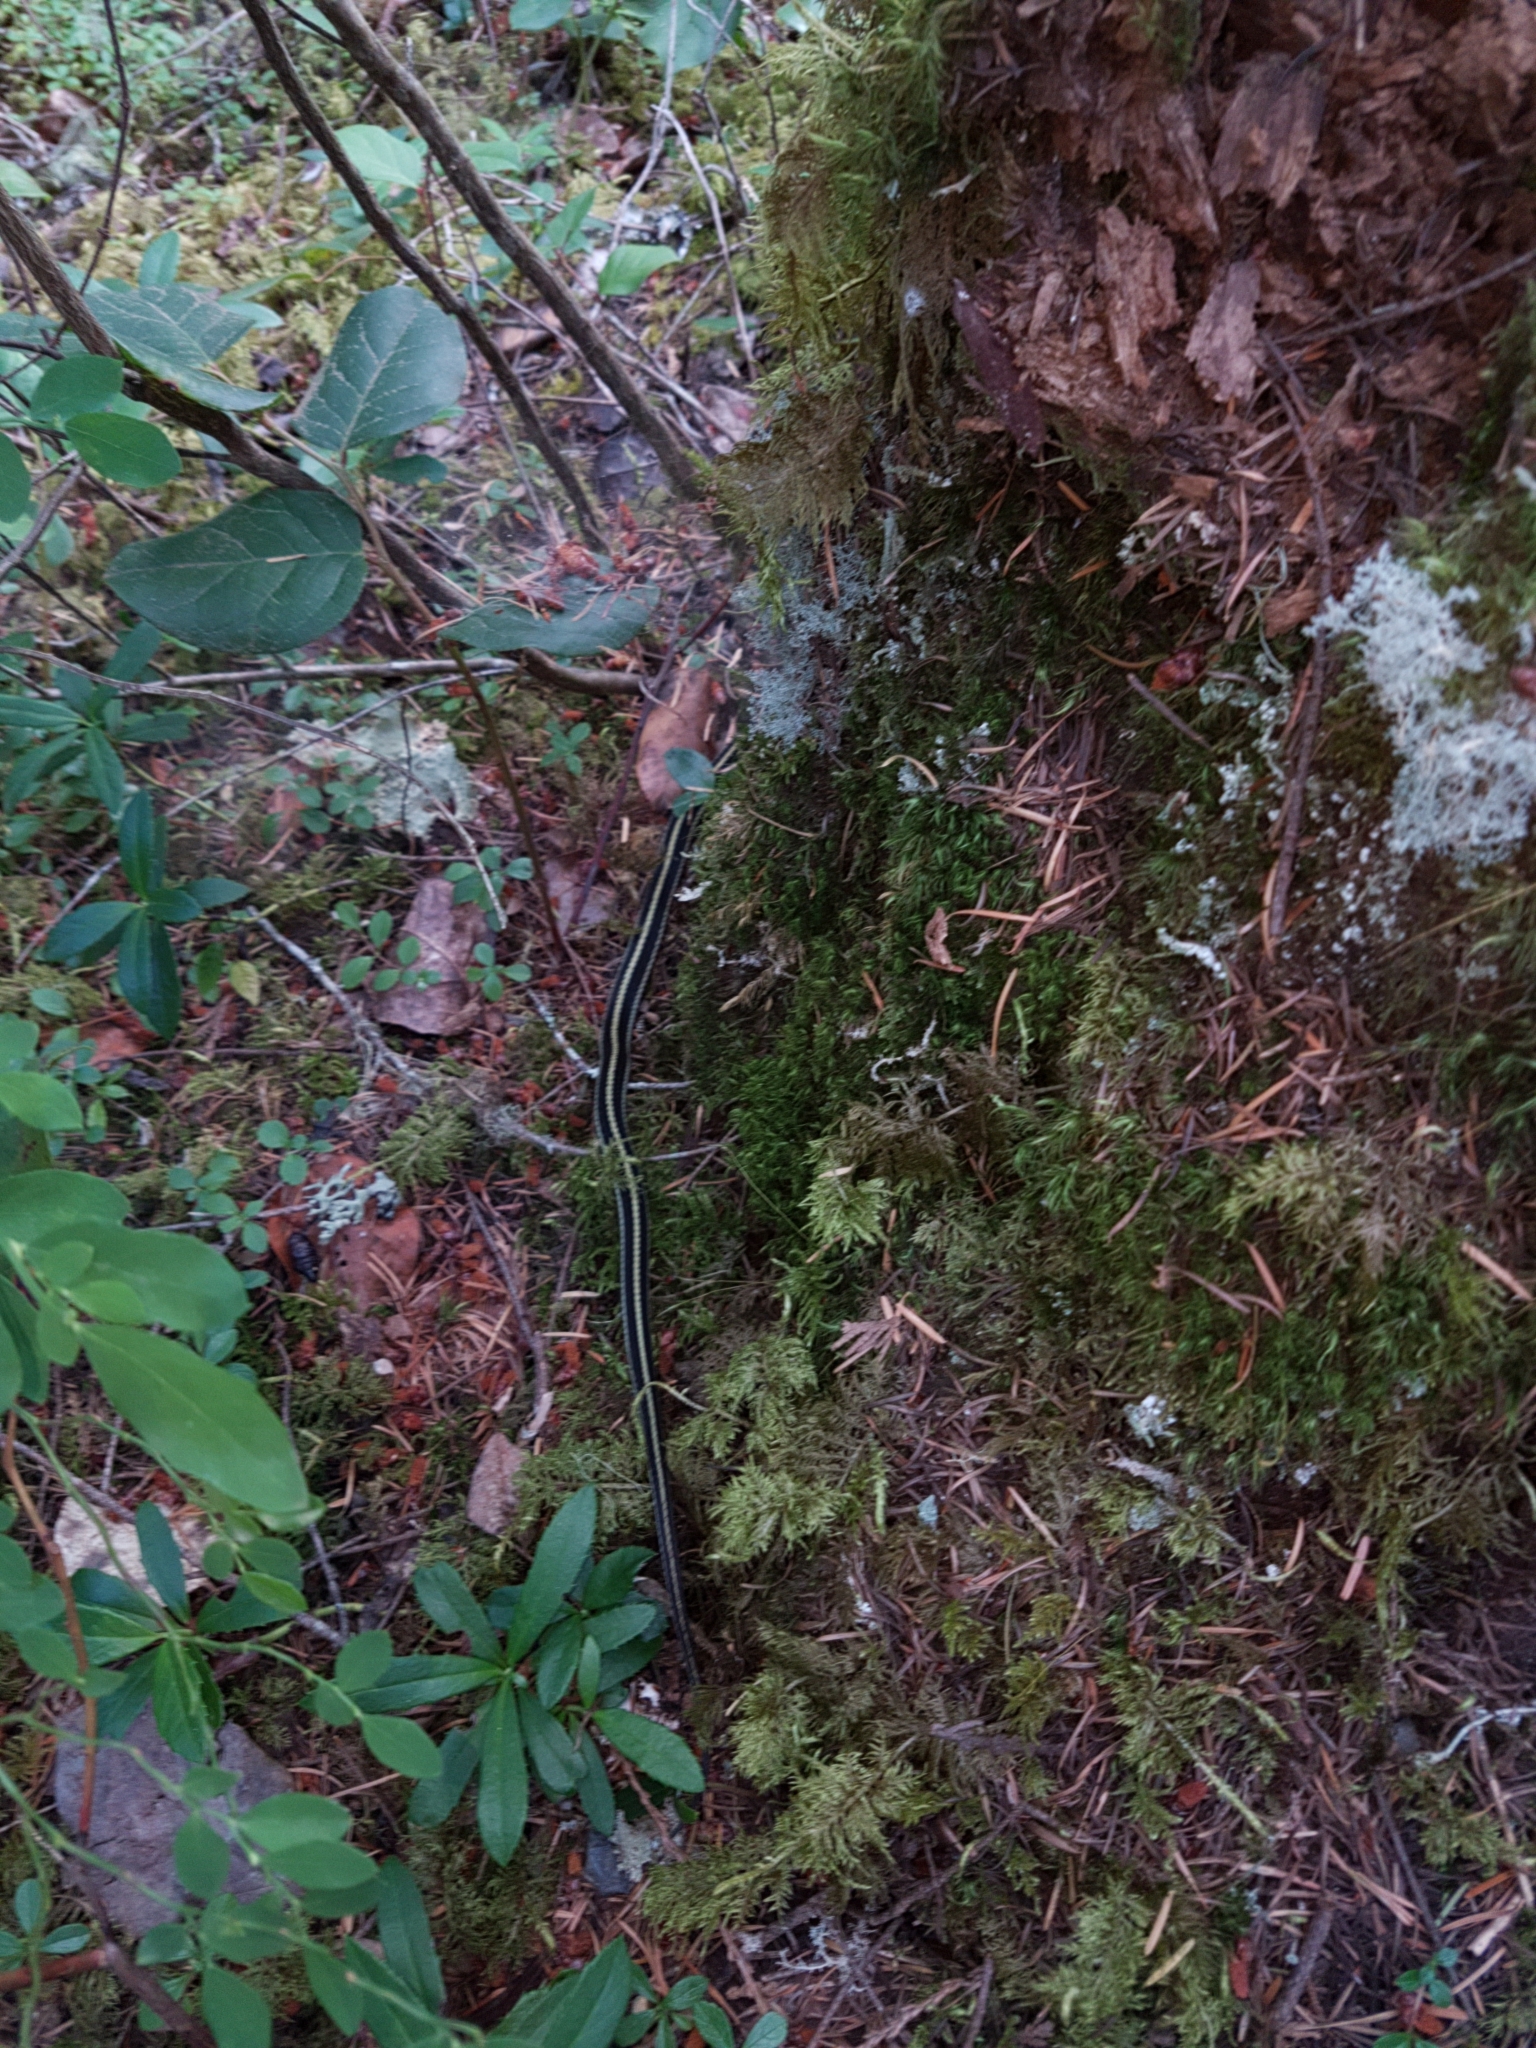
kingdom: Animalia
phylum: Chordata
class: Squamata
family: Colubridae
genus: Thamnophis
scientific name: Thamnophis sirtalis
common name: Common garter snake
